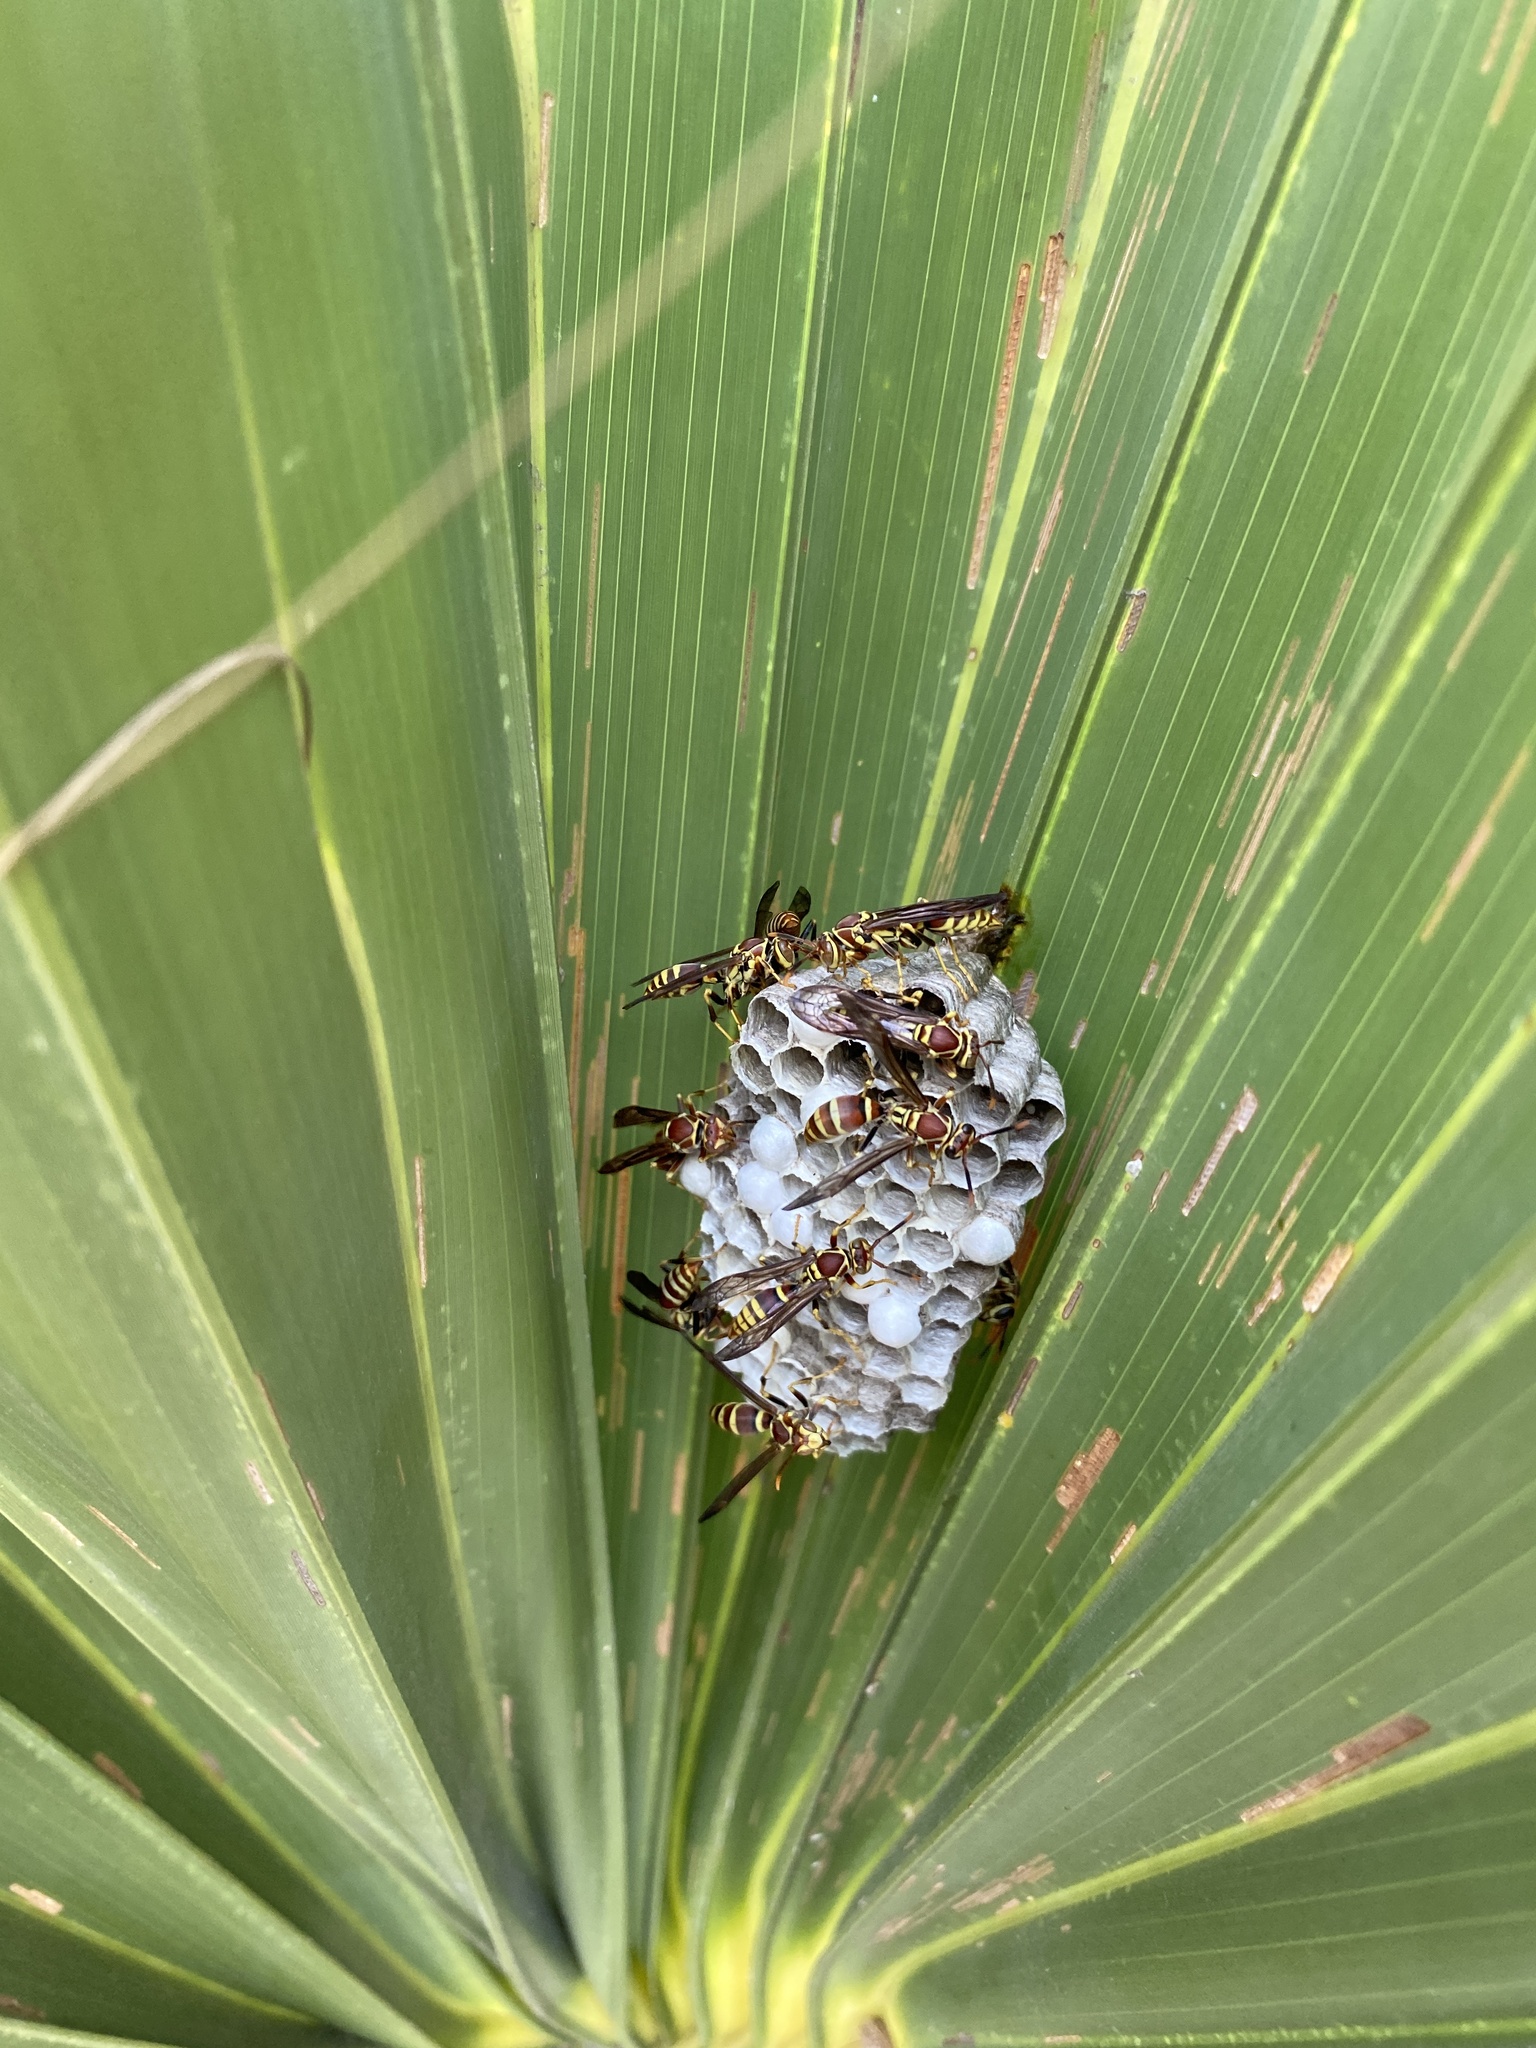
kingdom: Animalia
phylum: Arthropoda
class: Insecta
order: Hymenoptera
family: Eumenidae
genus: Polistes
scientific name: Polistes exclamans
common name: Paper wasp
